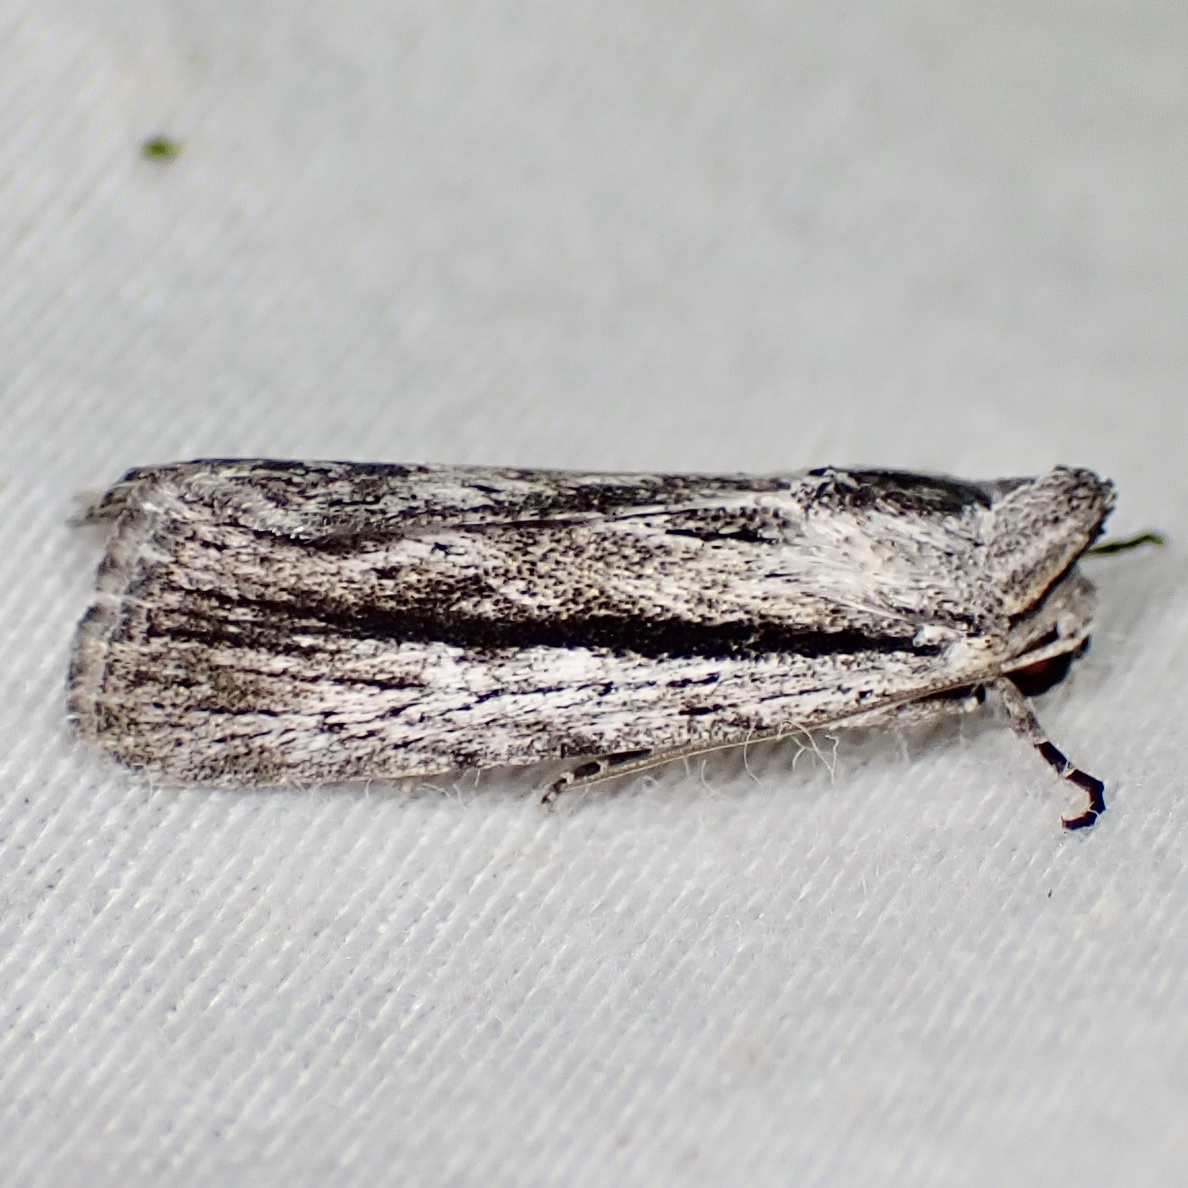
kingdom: Animalia
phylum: Arthropoda
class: Insecta
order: Lepidoptera
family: Noctuidae
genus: Catabenoides
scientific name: Catabenoides terminellus
